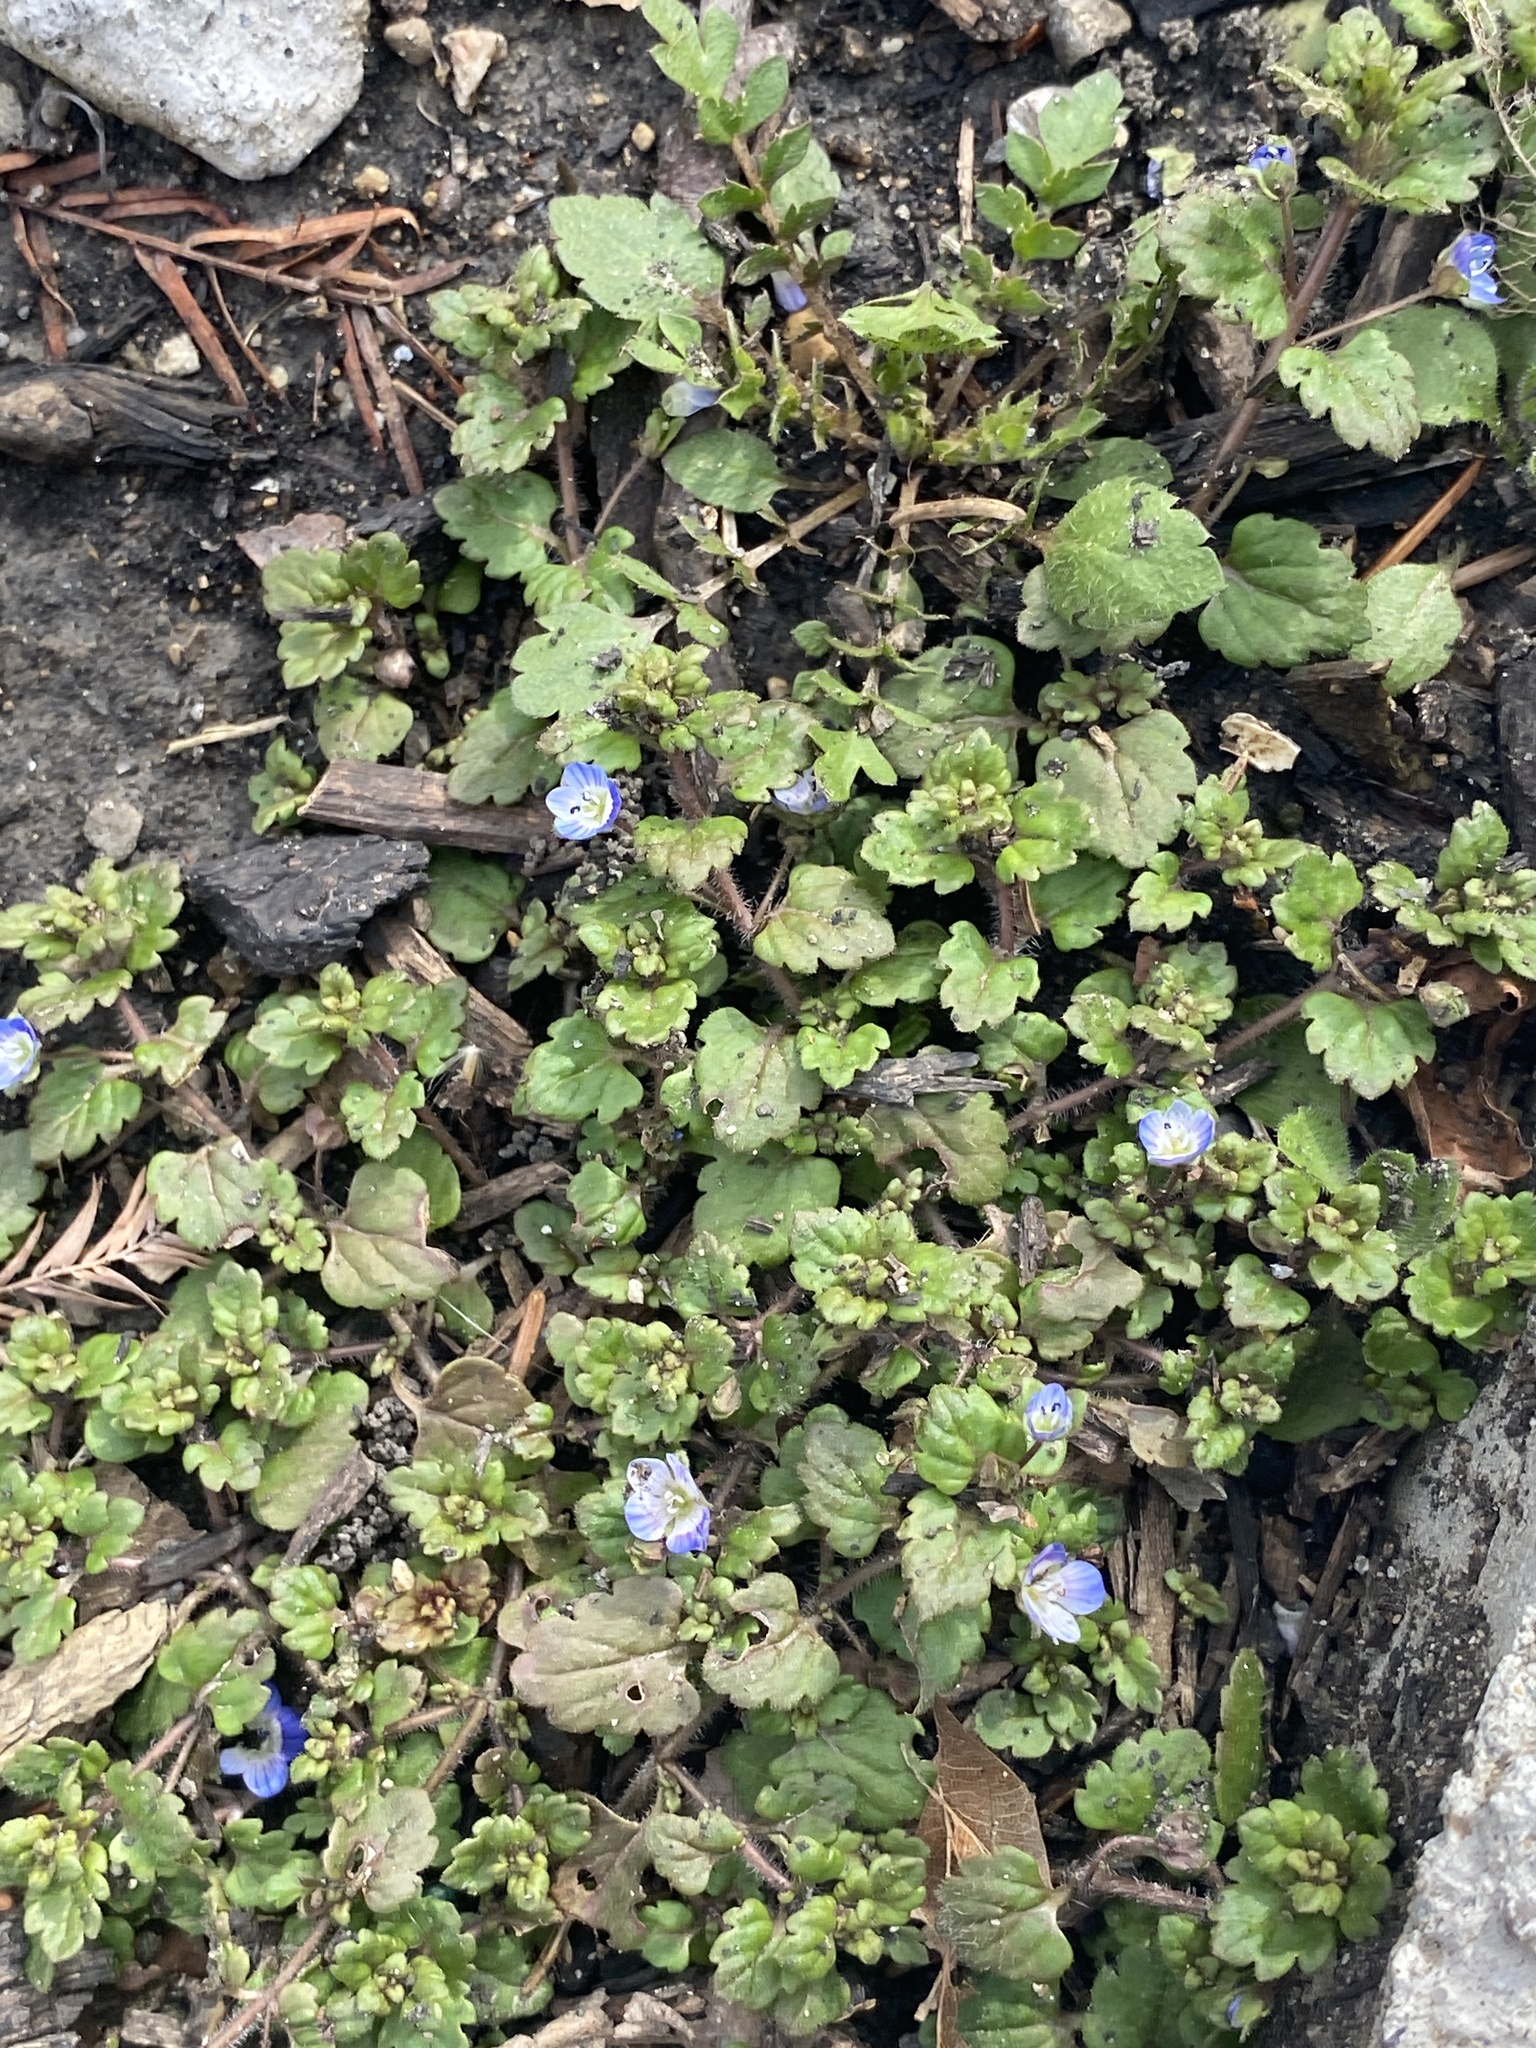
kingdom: Plantae
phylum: Tracheophyta
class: Magnoliopsida
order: Lamiales
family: Plantaginaceae
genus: Veronica
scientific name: Veronica polita
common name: Grey field-speedwell
